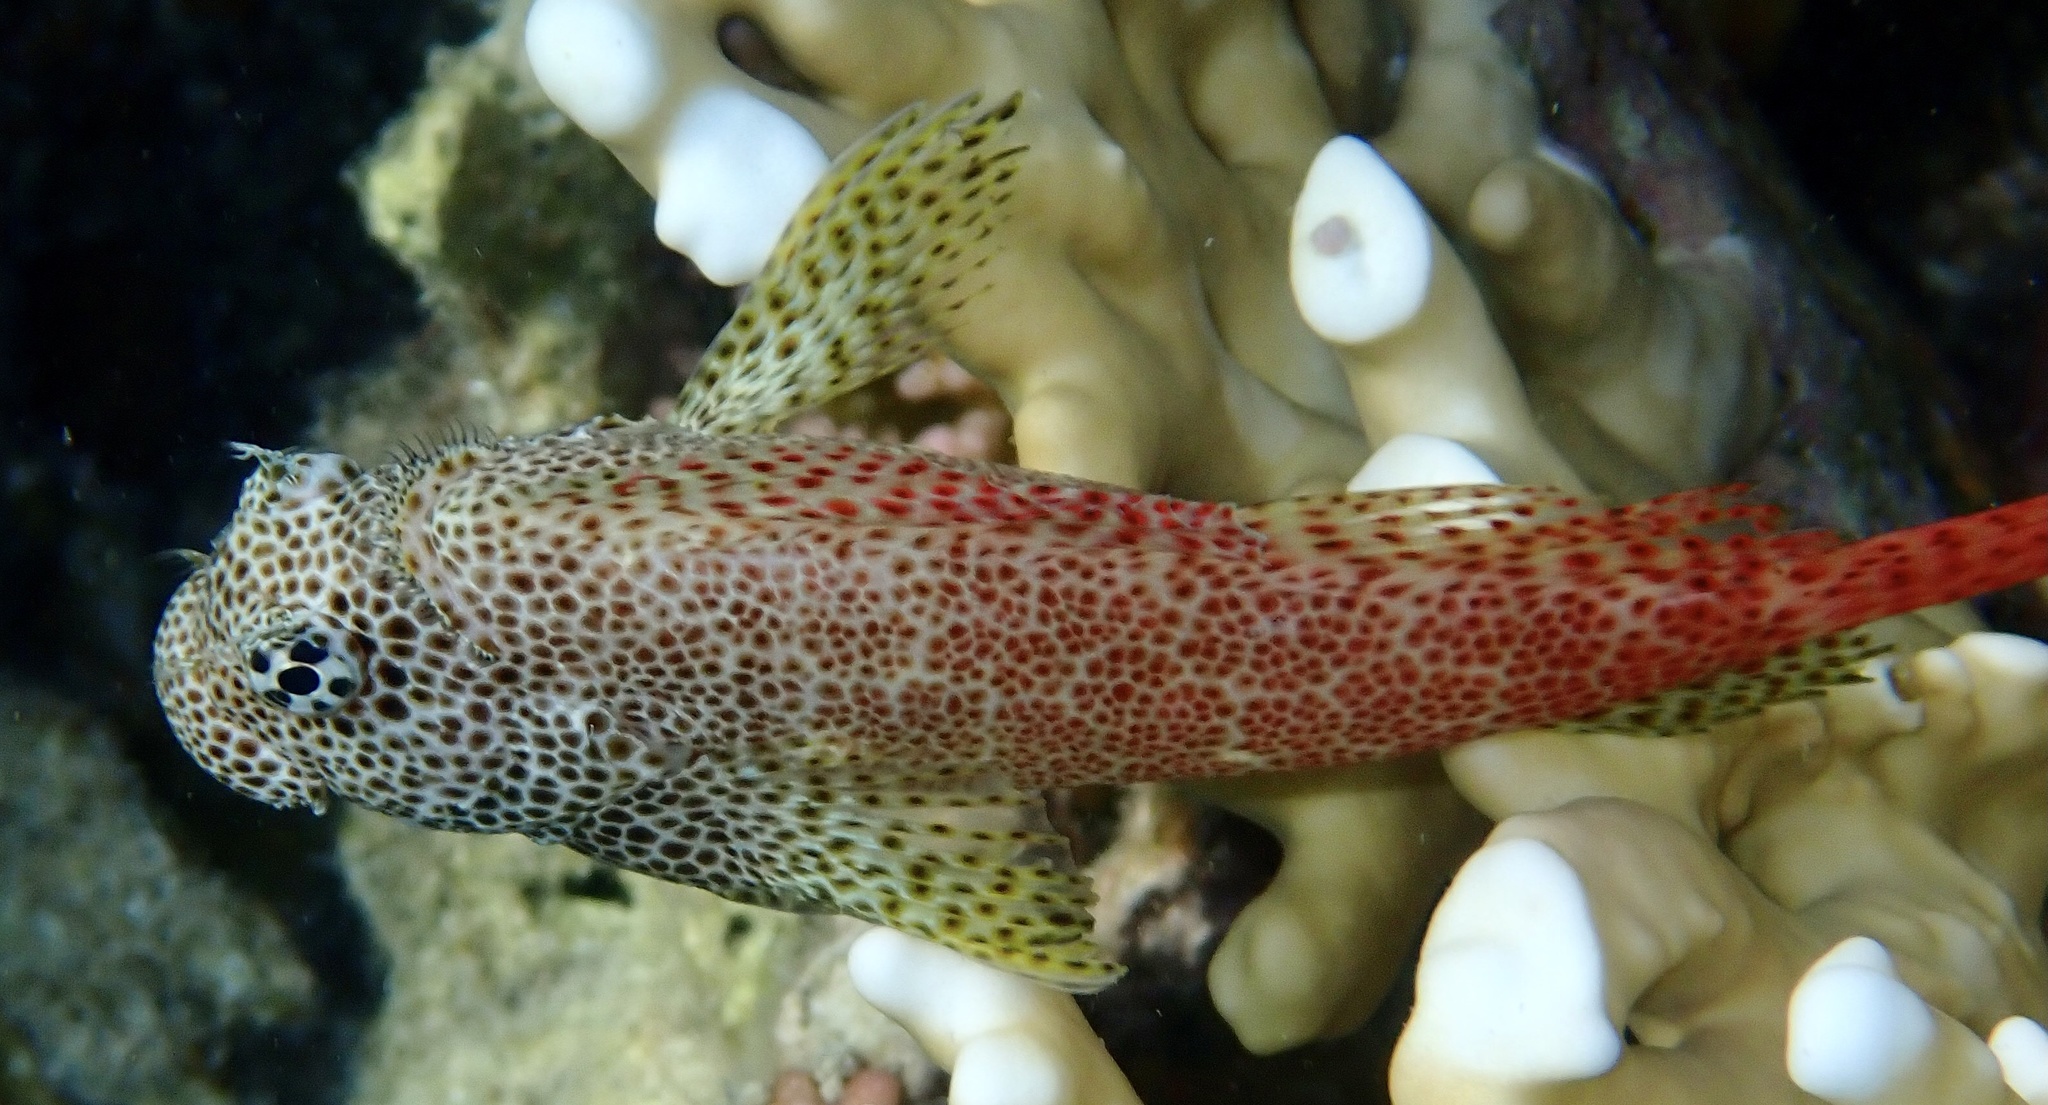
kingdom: Animalia
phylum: Chordata
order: Perciformes
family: Blenniidae
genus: Exallias
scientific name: Exallias brevis
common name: Leopard blenny
